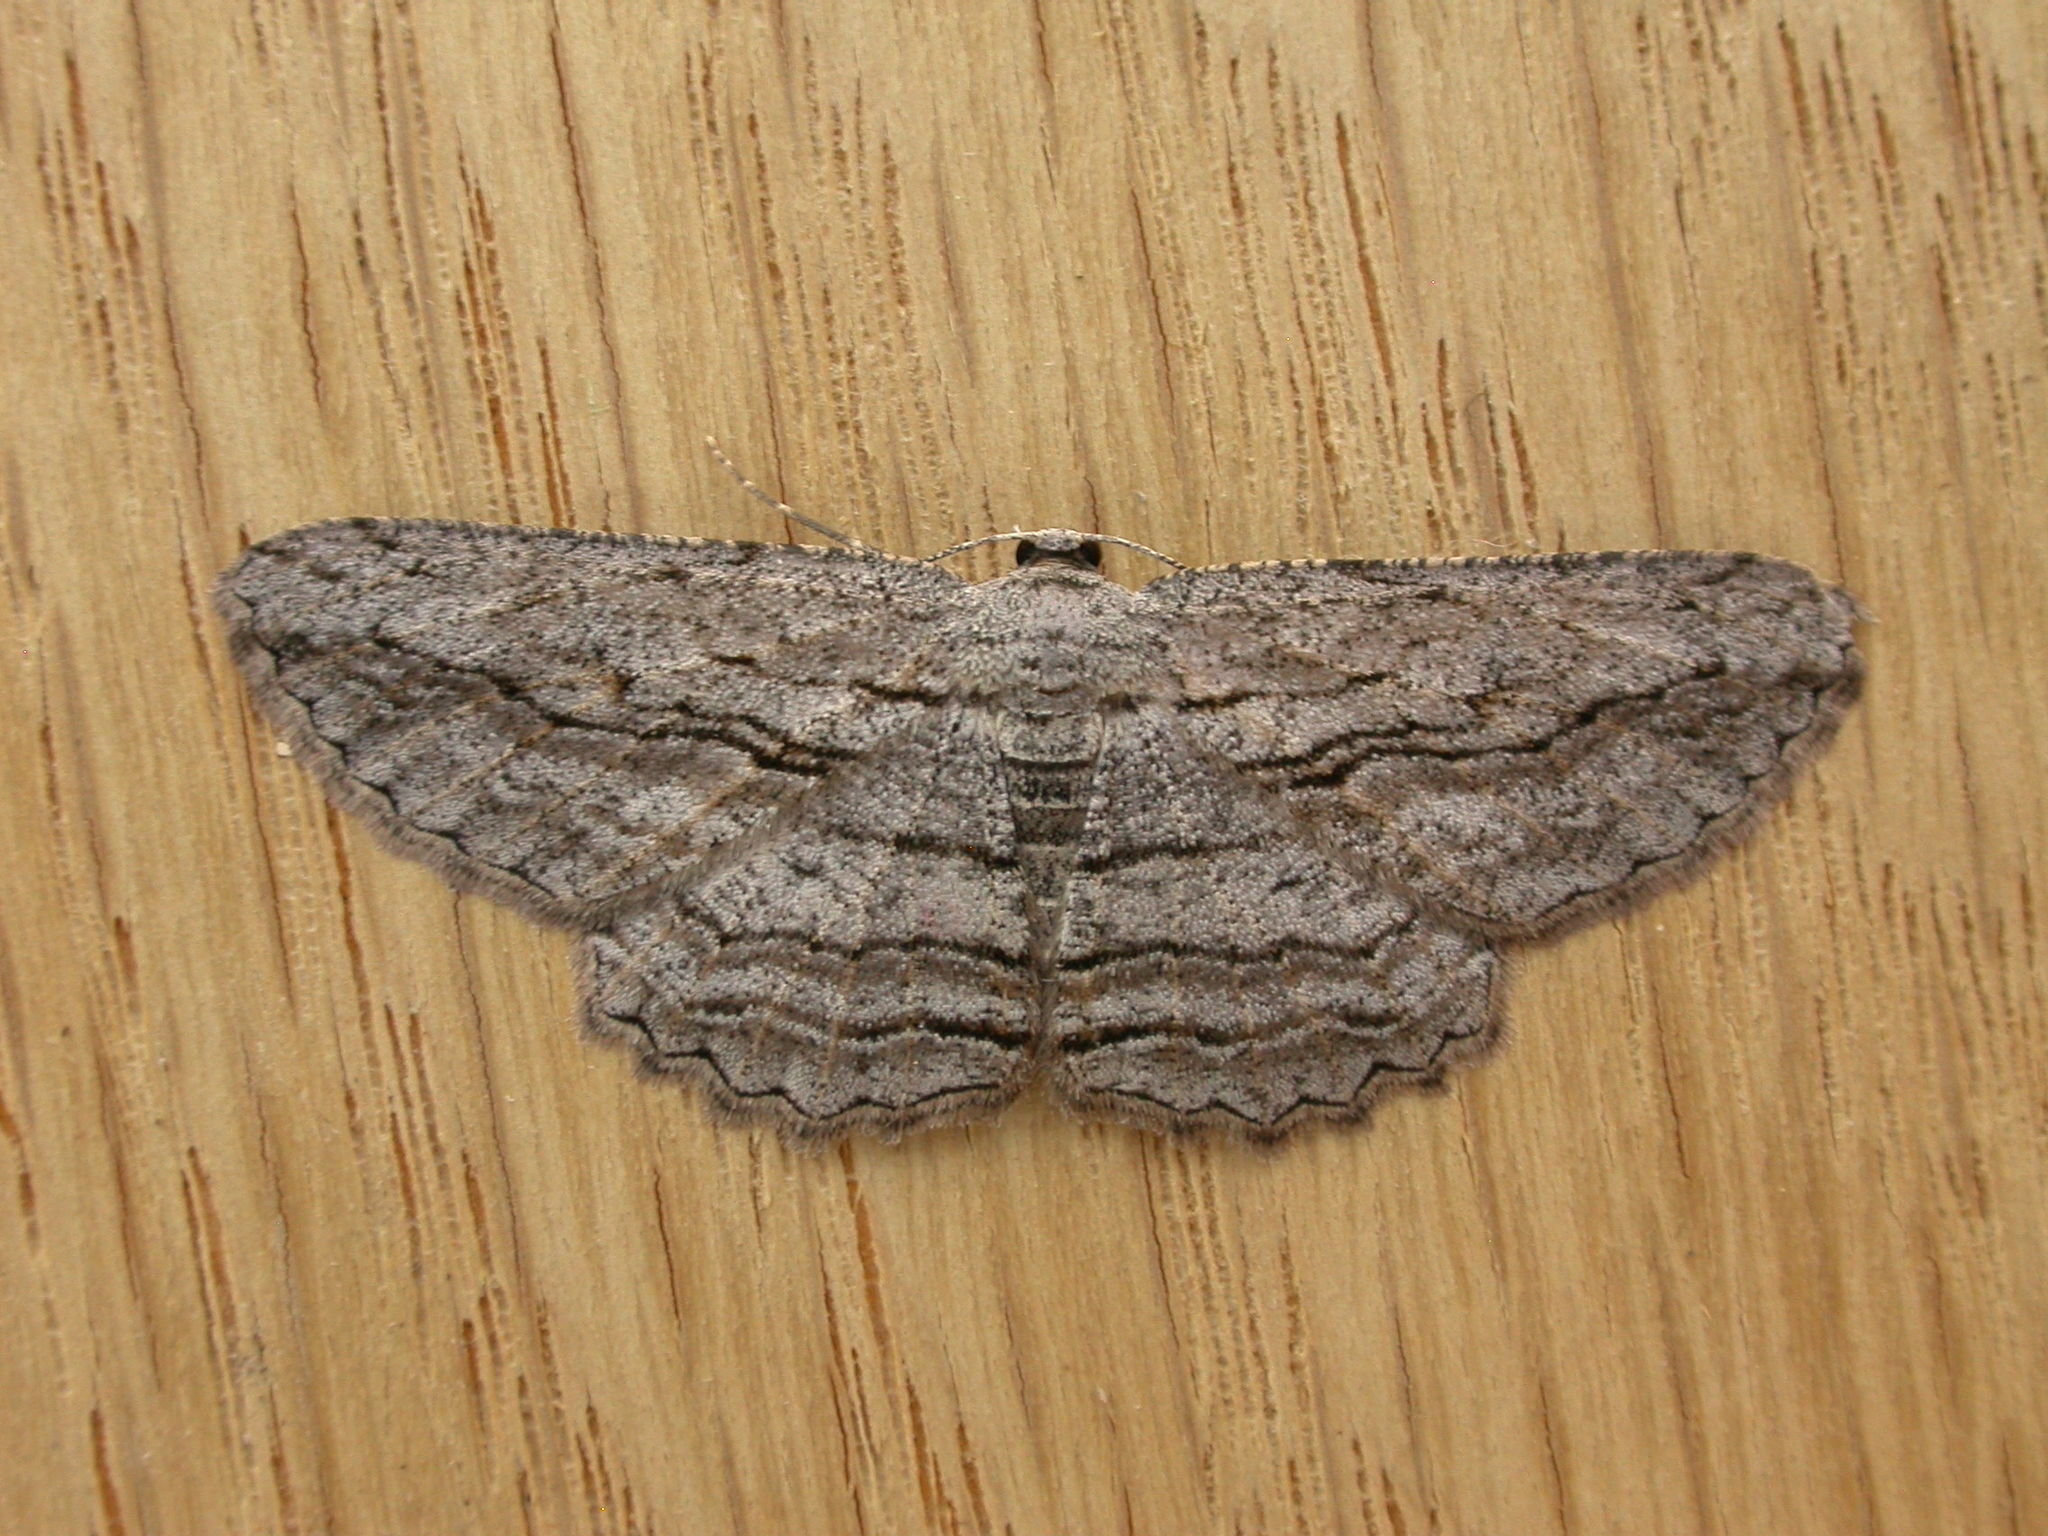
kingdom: Animalia
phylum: Arthropoda
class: Insecta
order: Lepidoptera
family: Geometridae
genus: Scioglyptis
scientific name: Scioglyptis loxographa
